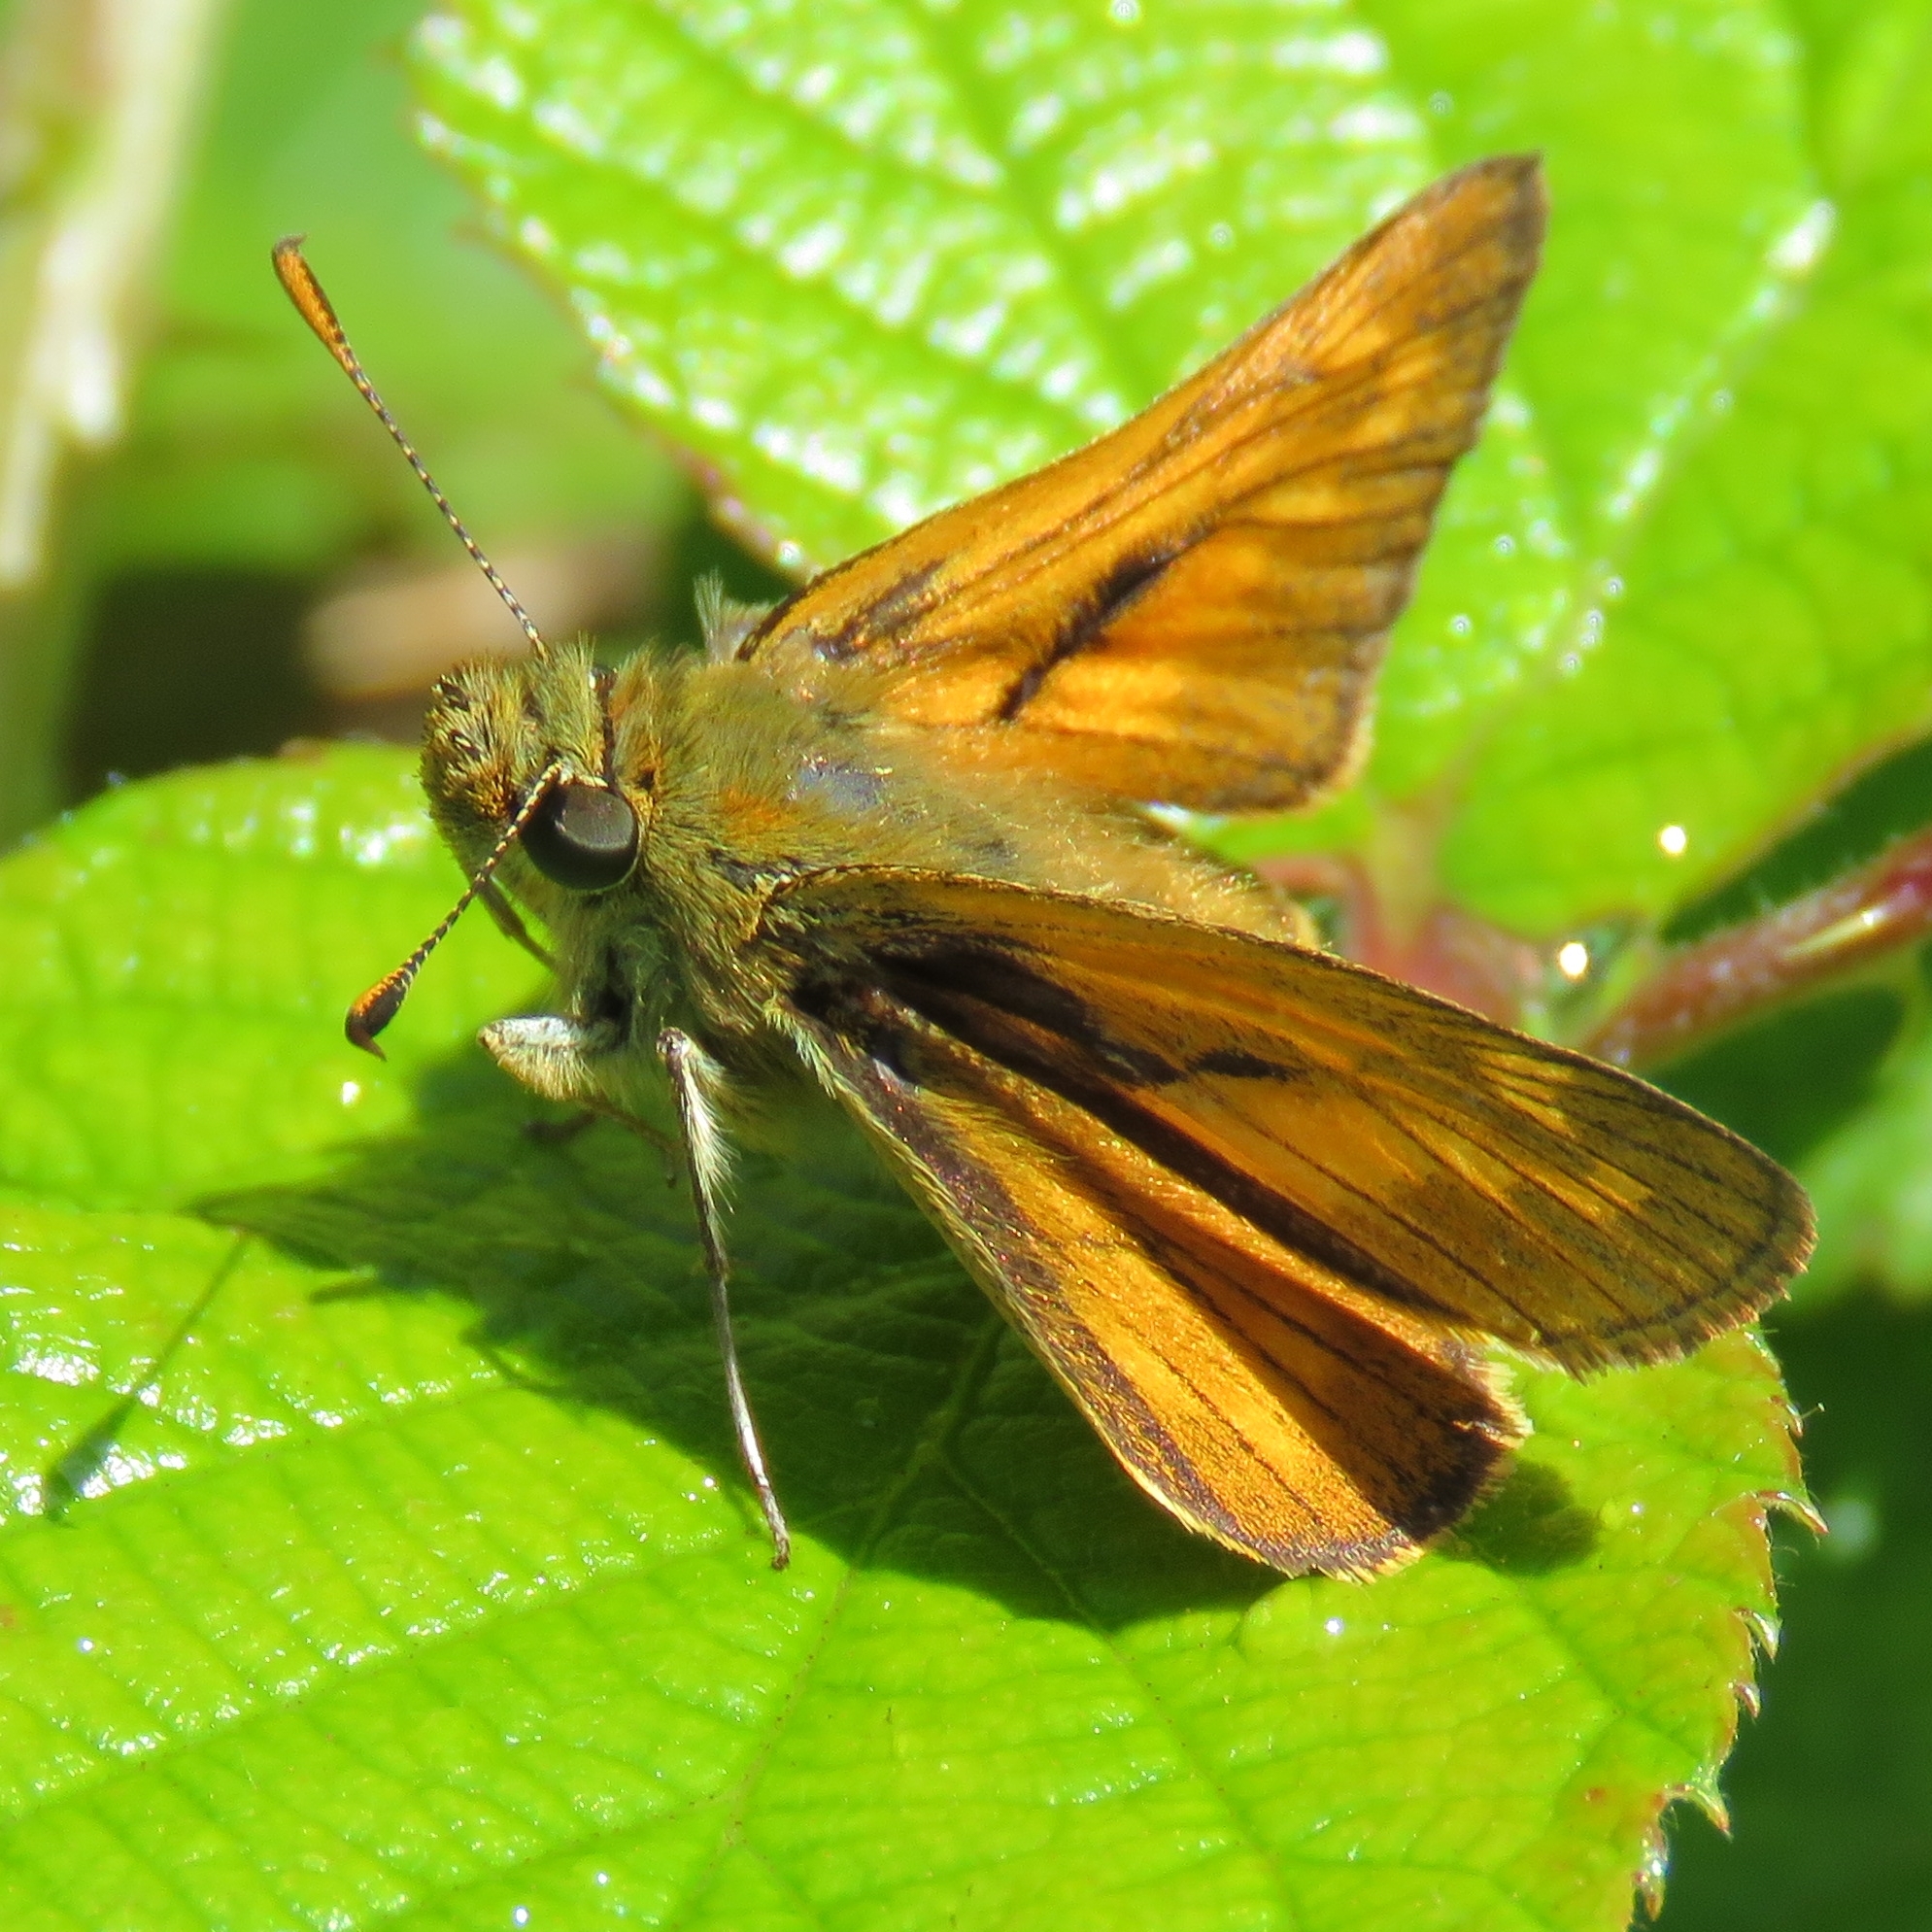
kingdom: Animalia
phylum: Arthropoda
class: Insecta
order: Lepidoptera
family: Hesperiidae
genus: Ochlodes
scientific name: Ochlodes venata
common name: Large skipper
